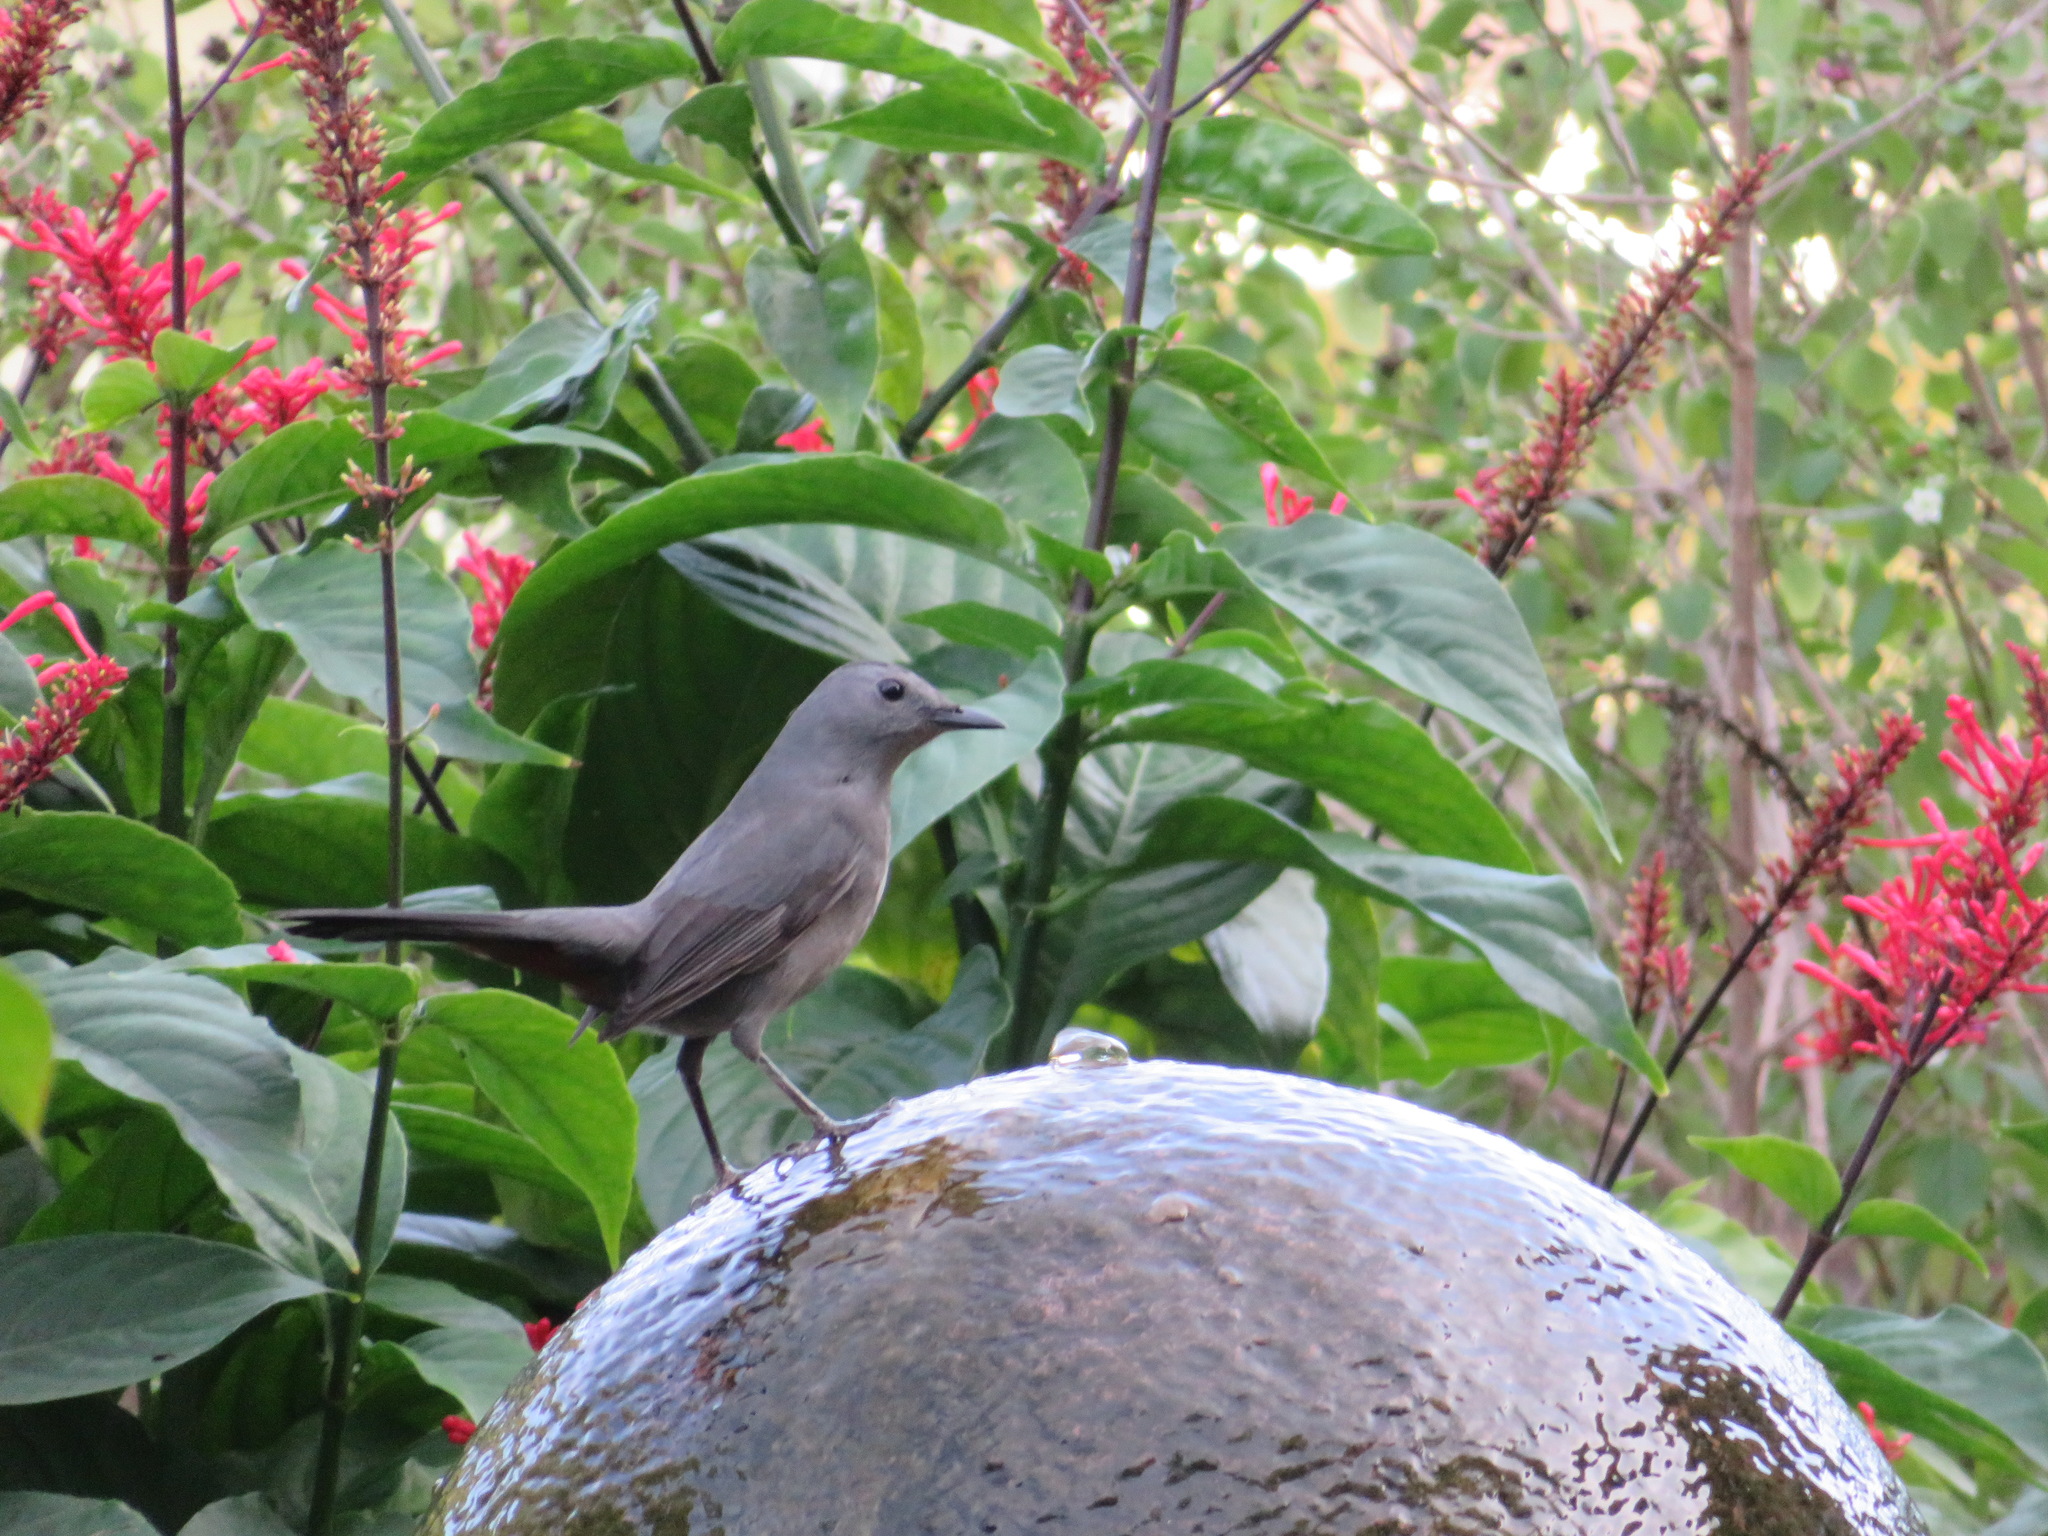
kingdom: Animalia
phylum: Chordata
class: Aves
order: Passeriformes
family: Mimidae
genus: Dumetella
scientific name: Dumetella carolinensis
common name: Gray catbird
